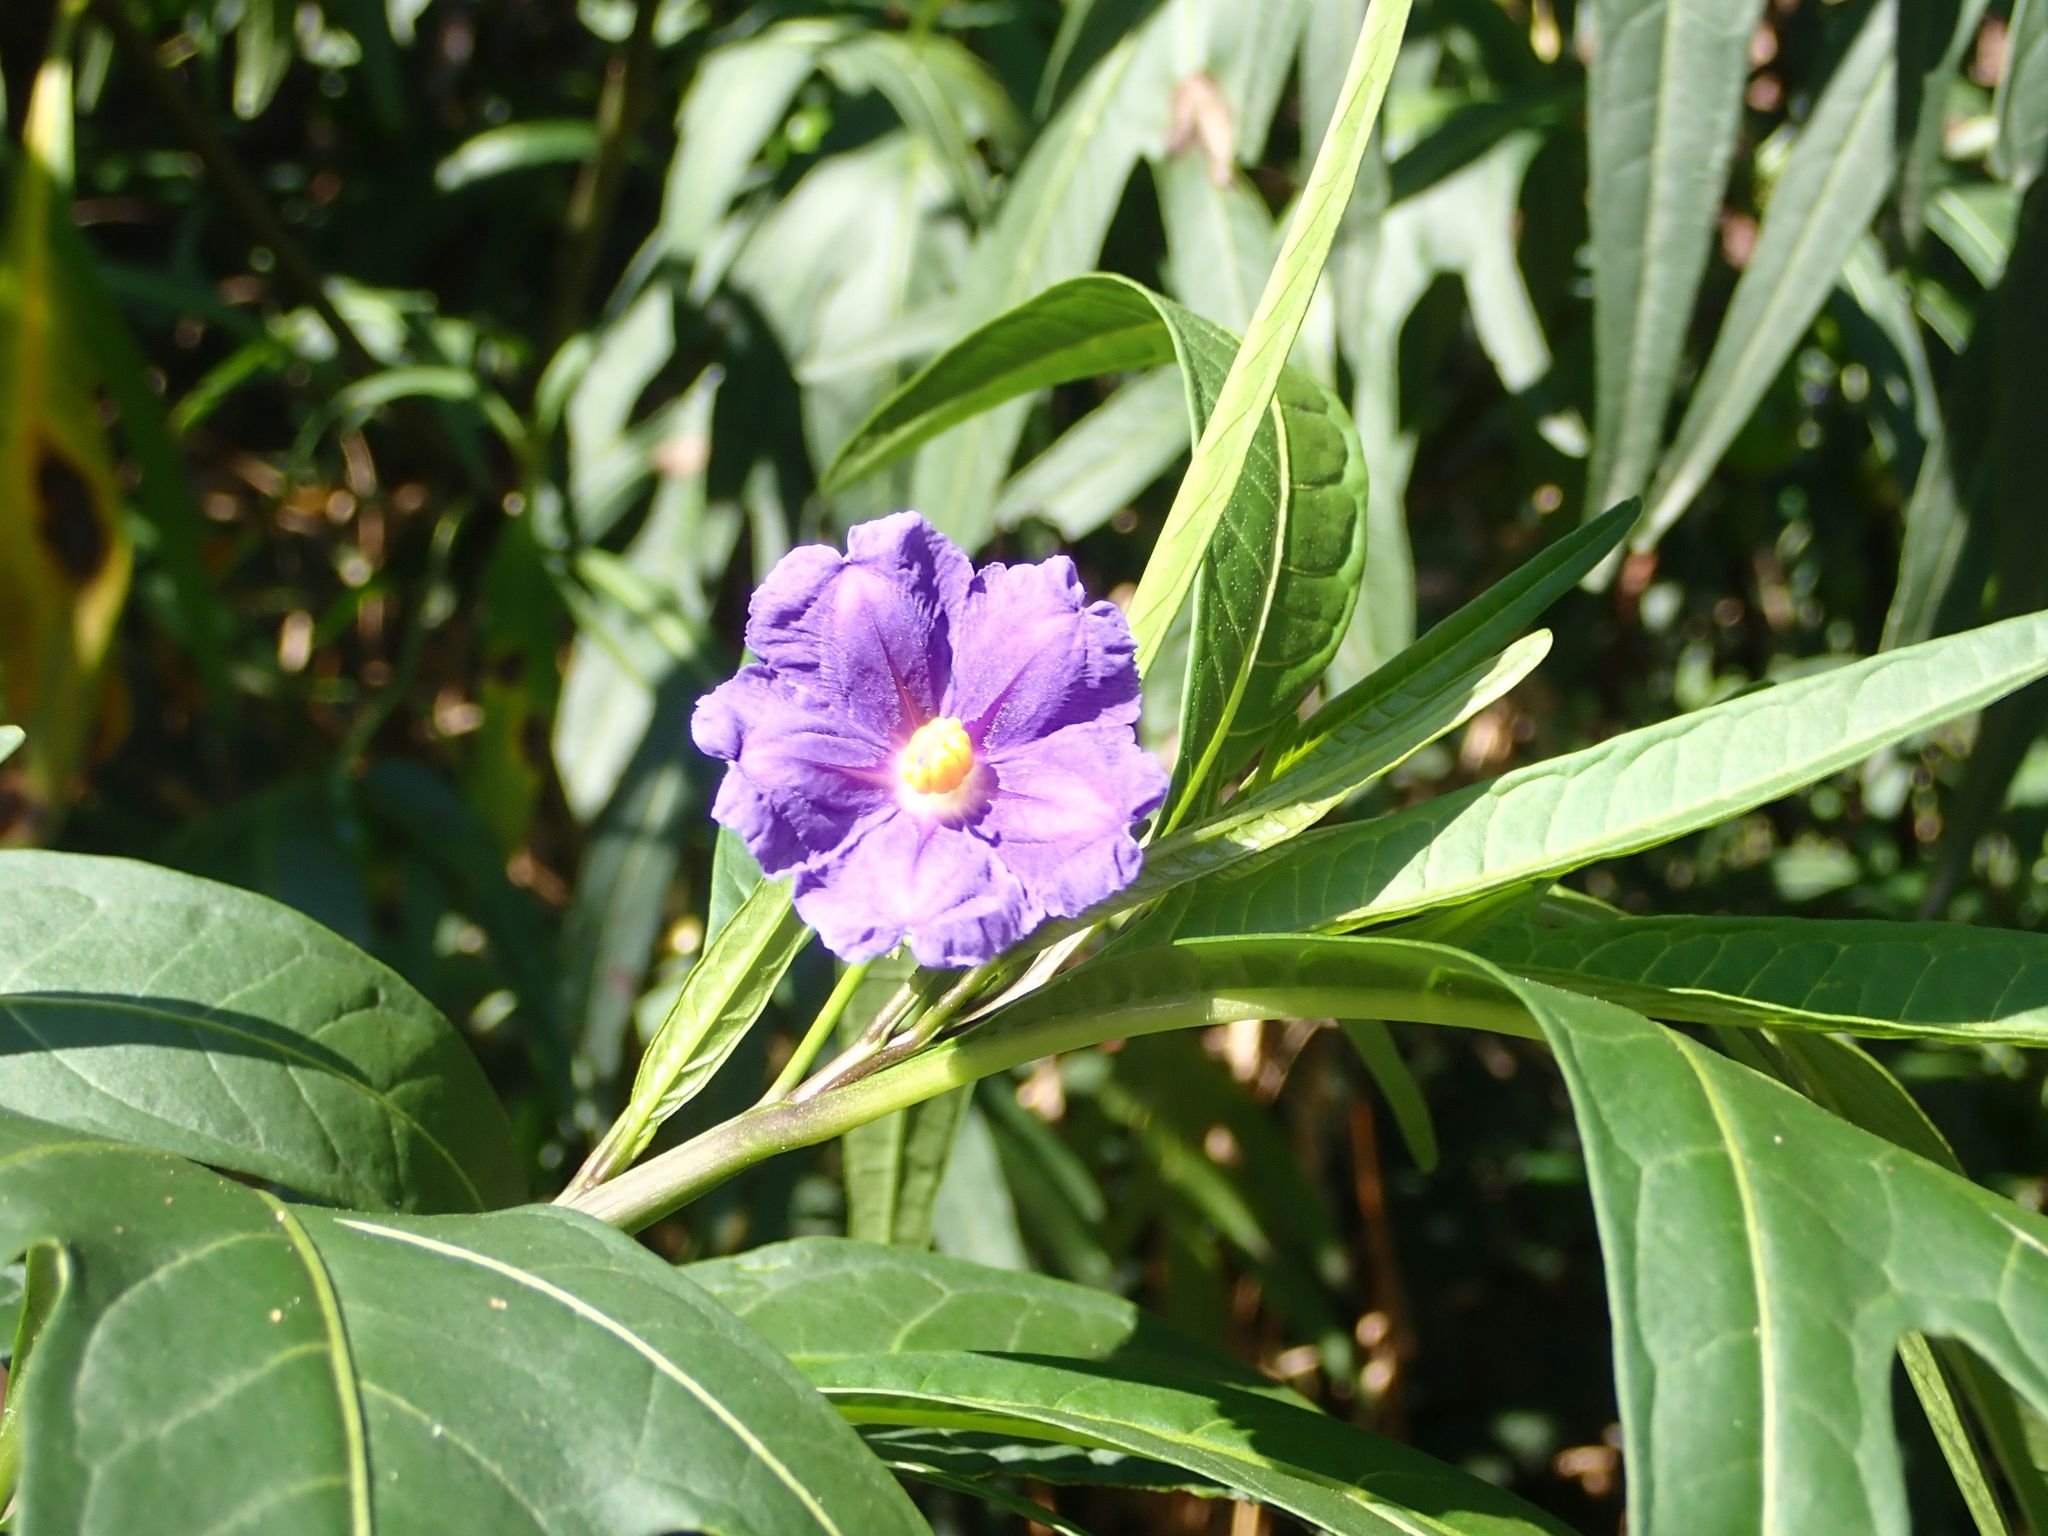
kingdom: Plantae
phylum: Tracheophyta
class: Magnoliopsida
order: Solanales
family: Solanaceae
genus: Solanum
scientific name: Solanum laciniatum
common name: Kangaroo-apple
